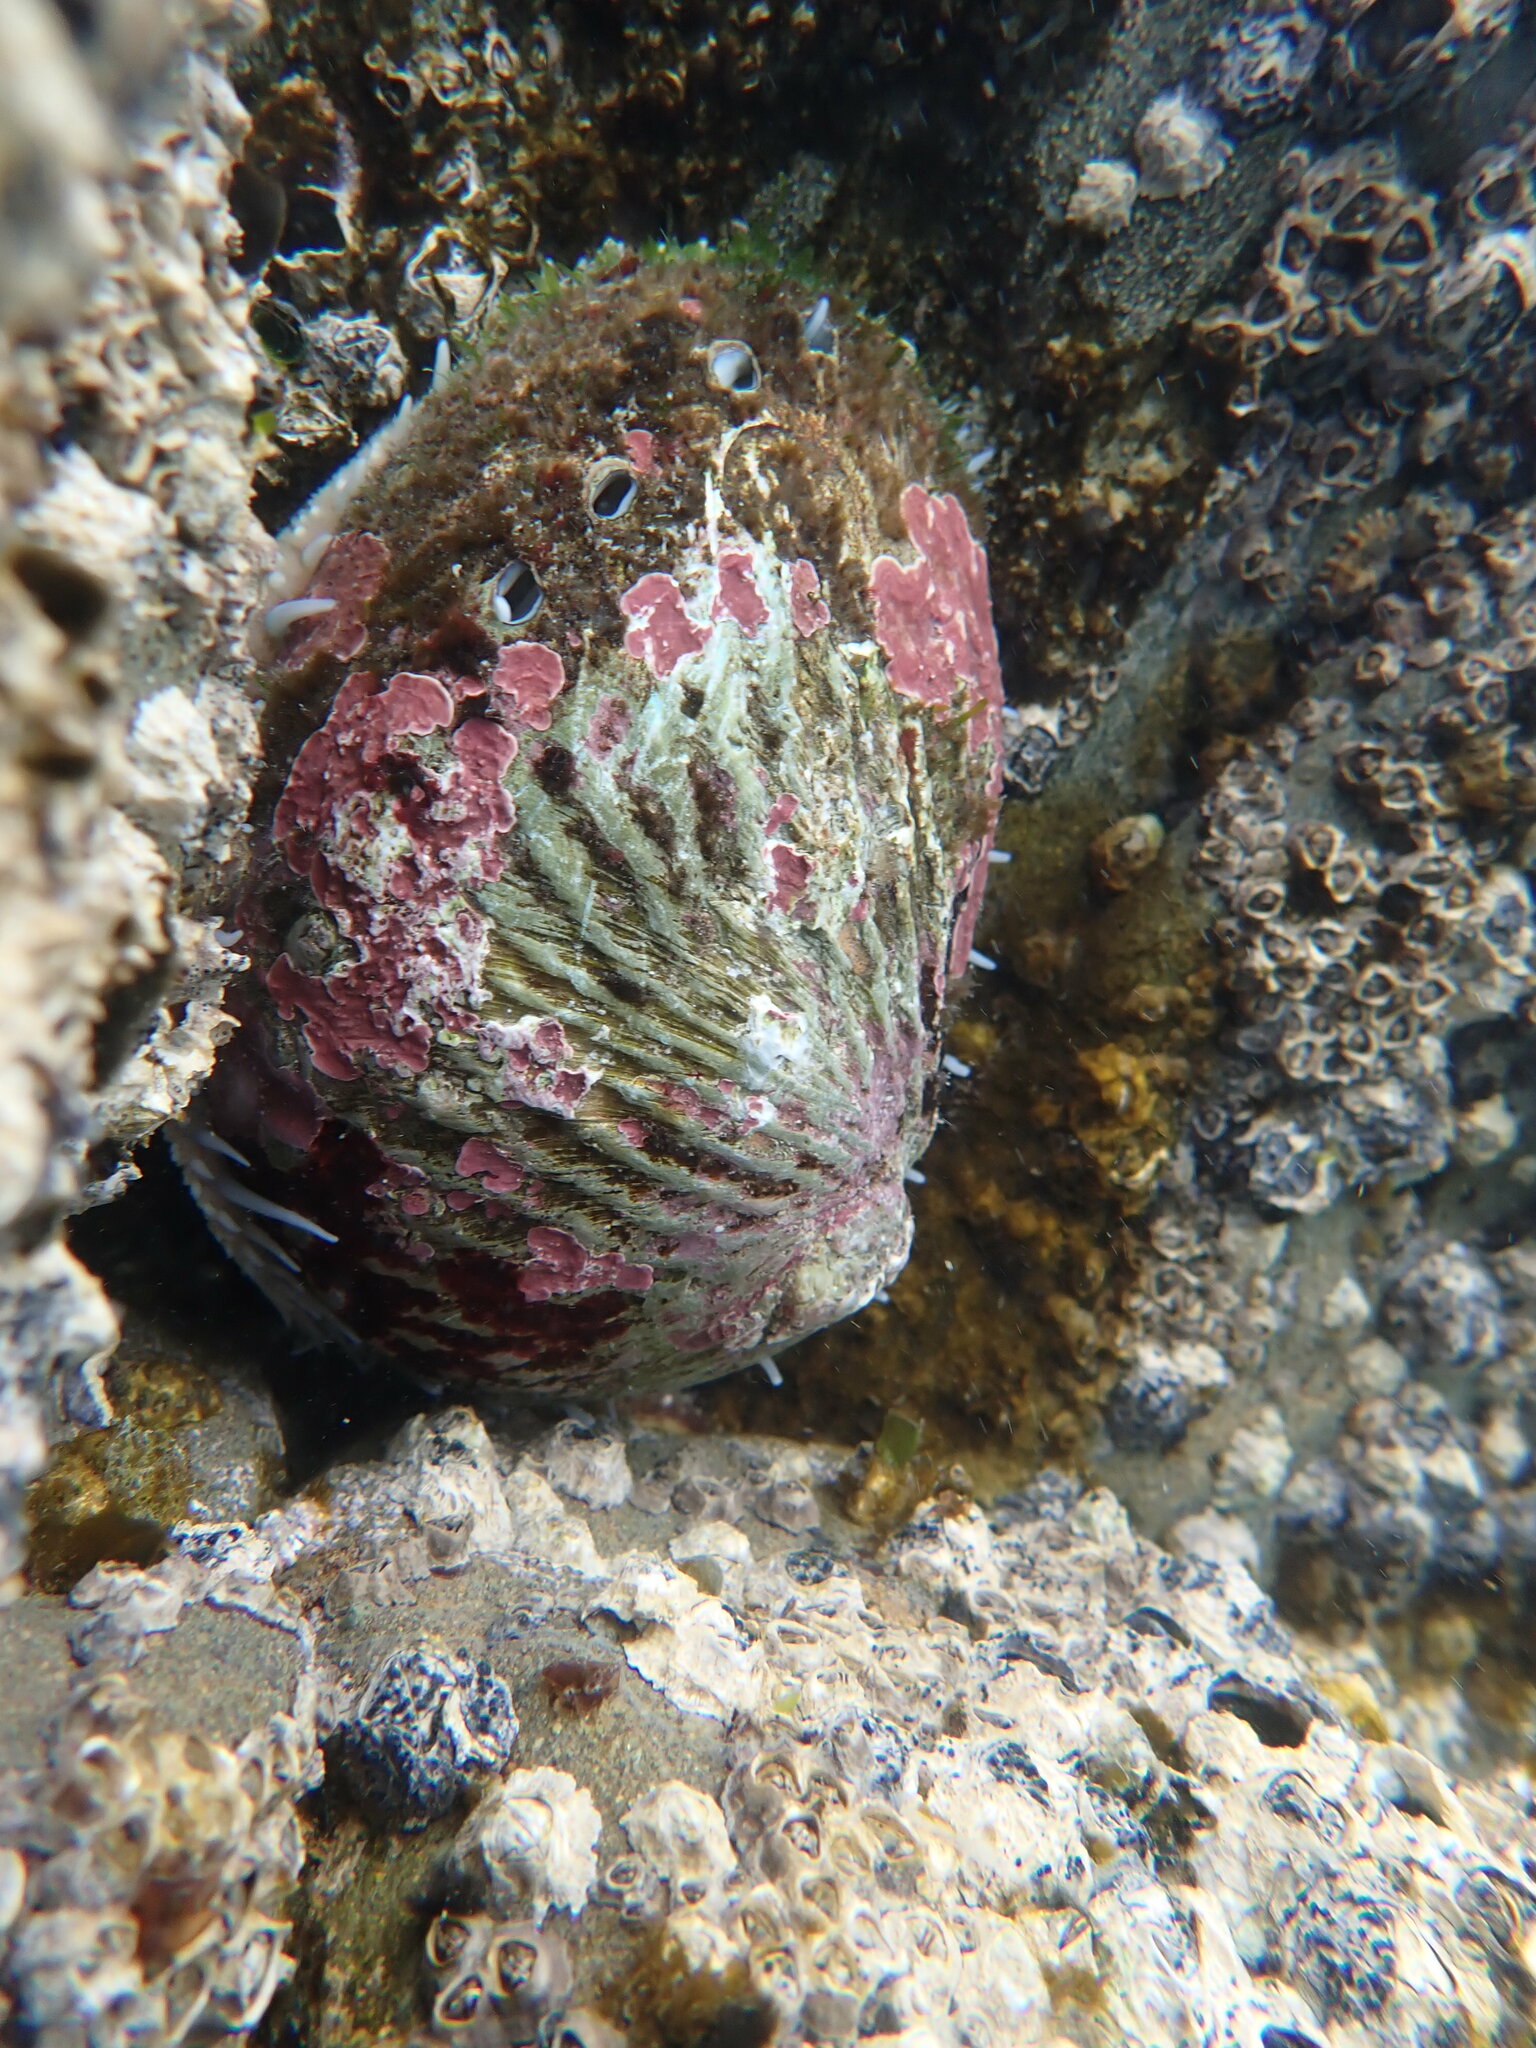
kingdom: Animalia
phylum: Mollusca
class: Gastropoda
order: Lepetellida
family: Haliotidae
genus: Haliotis
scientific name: Haliotis australis
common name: Silver abalone
